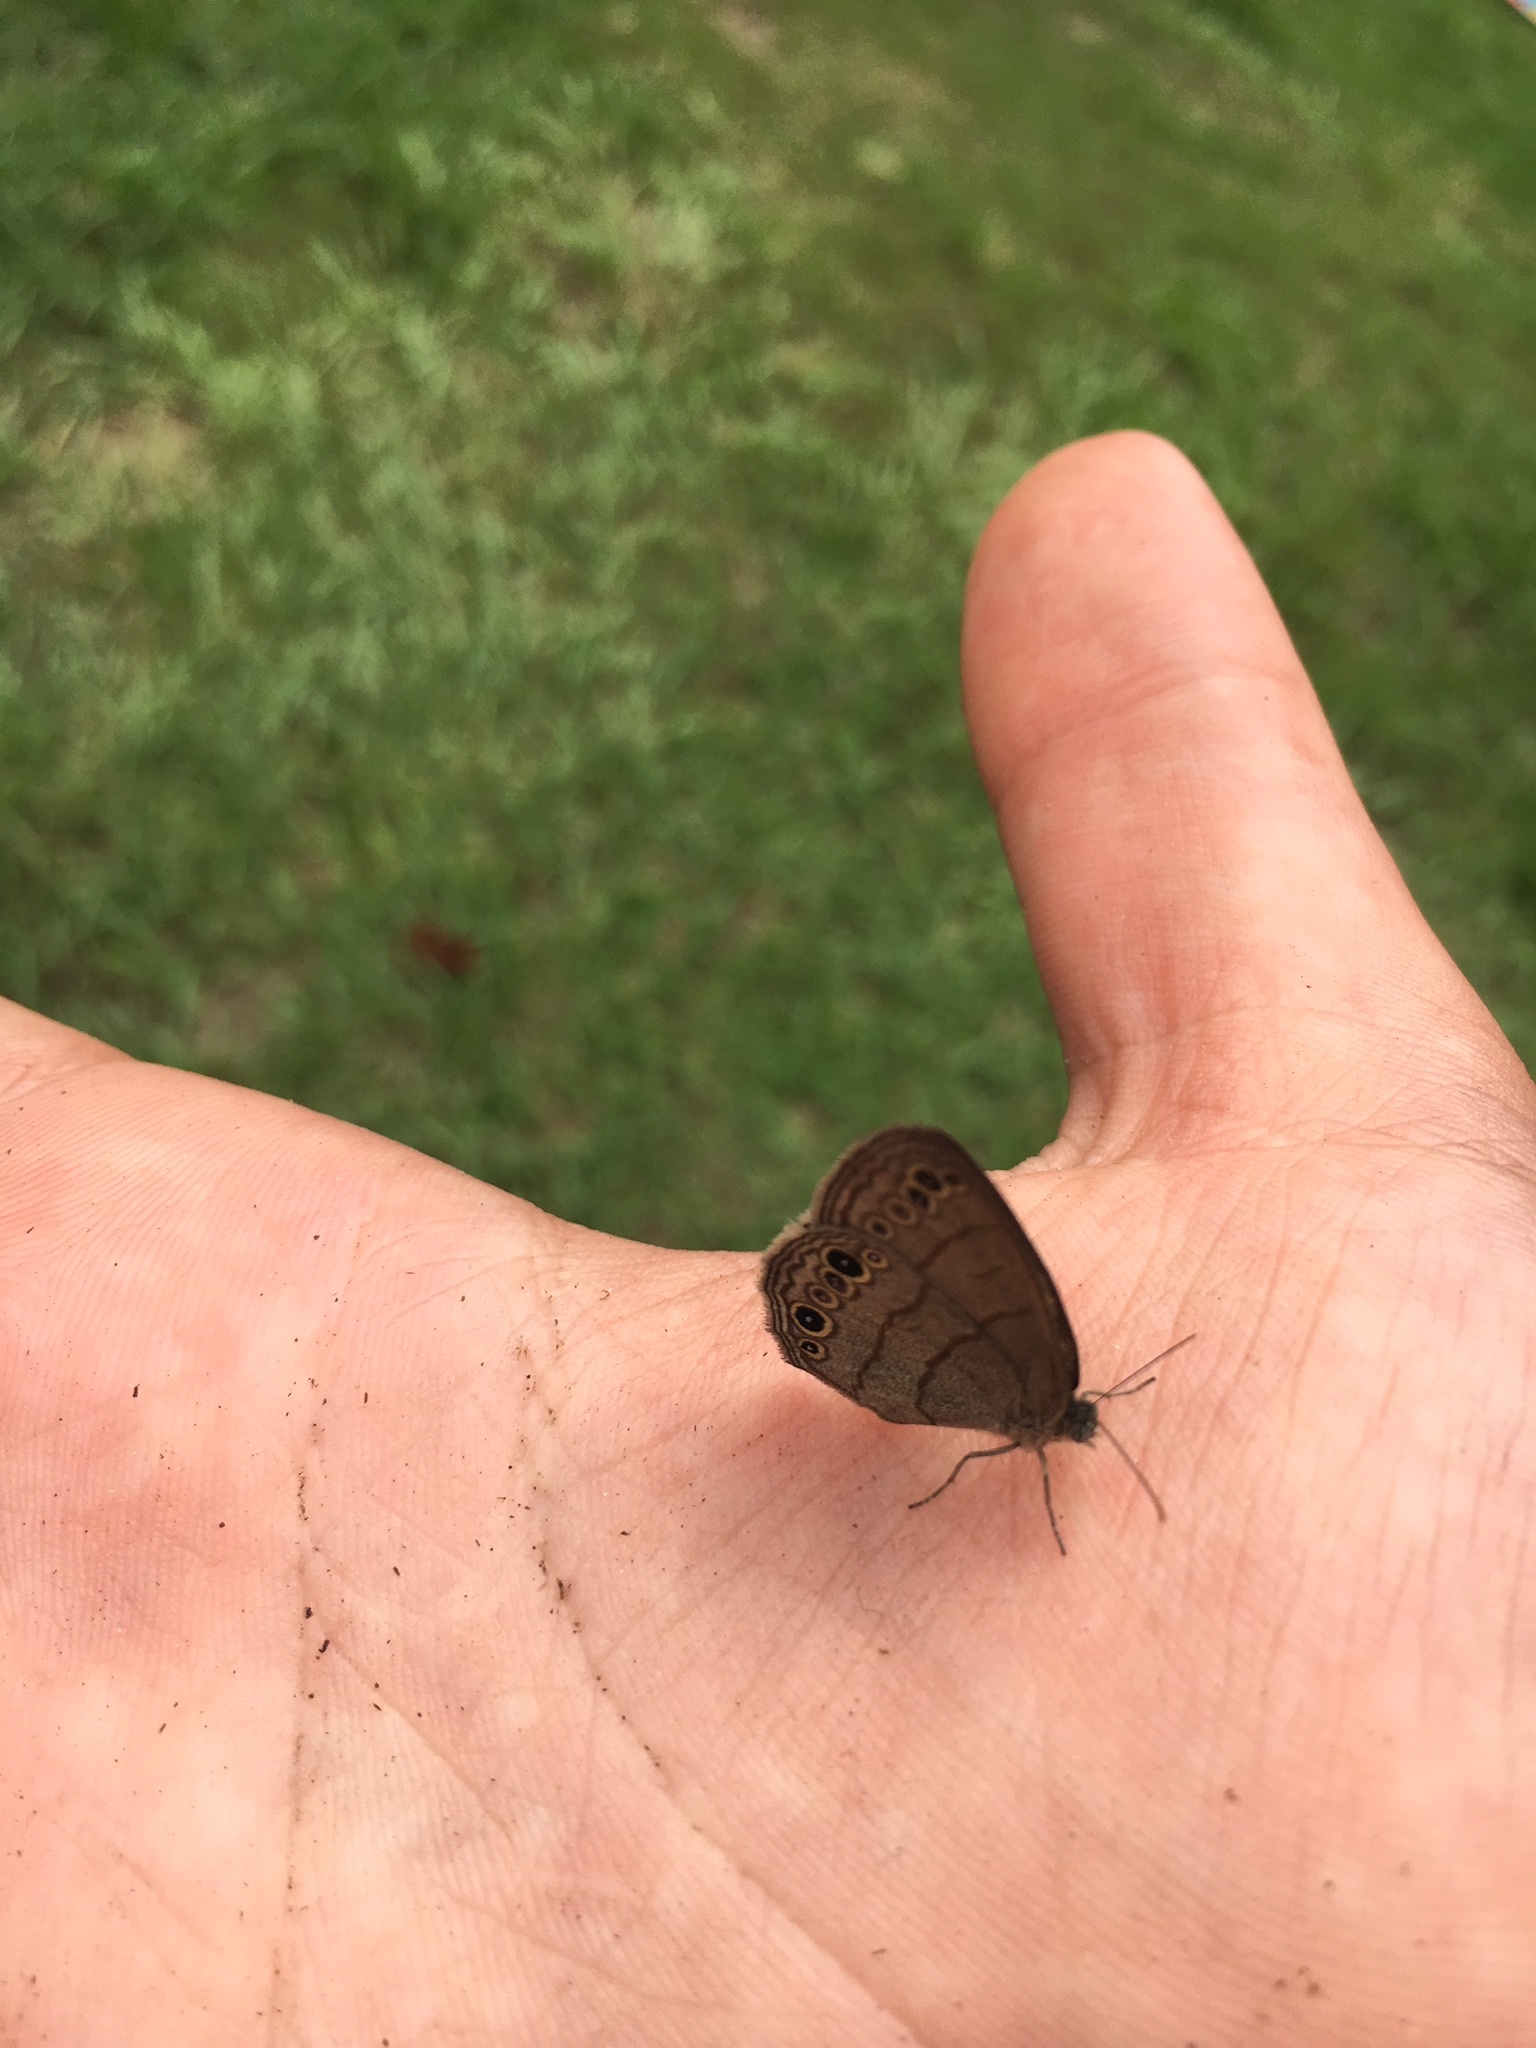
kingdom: Animalia
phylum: Arthropoda
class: Insecta
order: Lepidoptera
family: Nymphalidae
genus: Hermeuptychia
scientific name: Hermeuptychia hermes
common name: Hermes satyr
